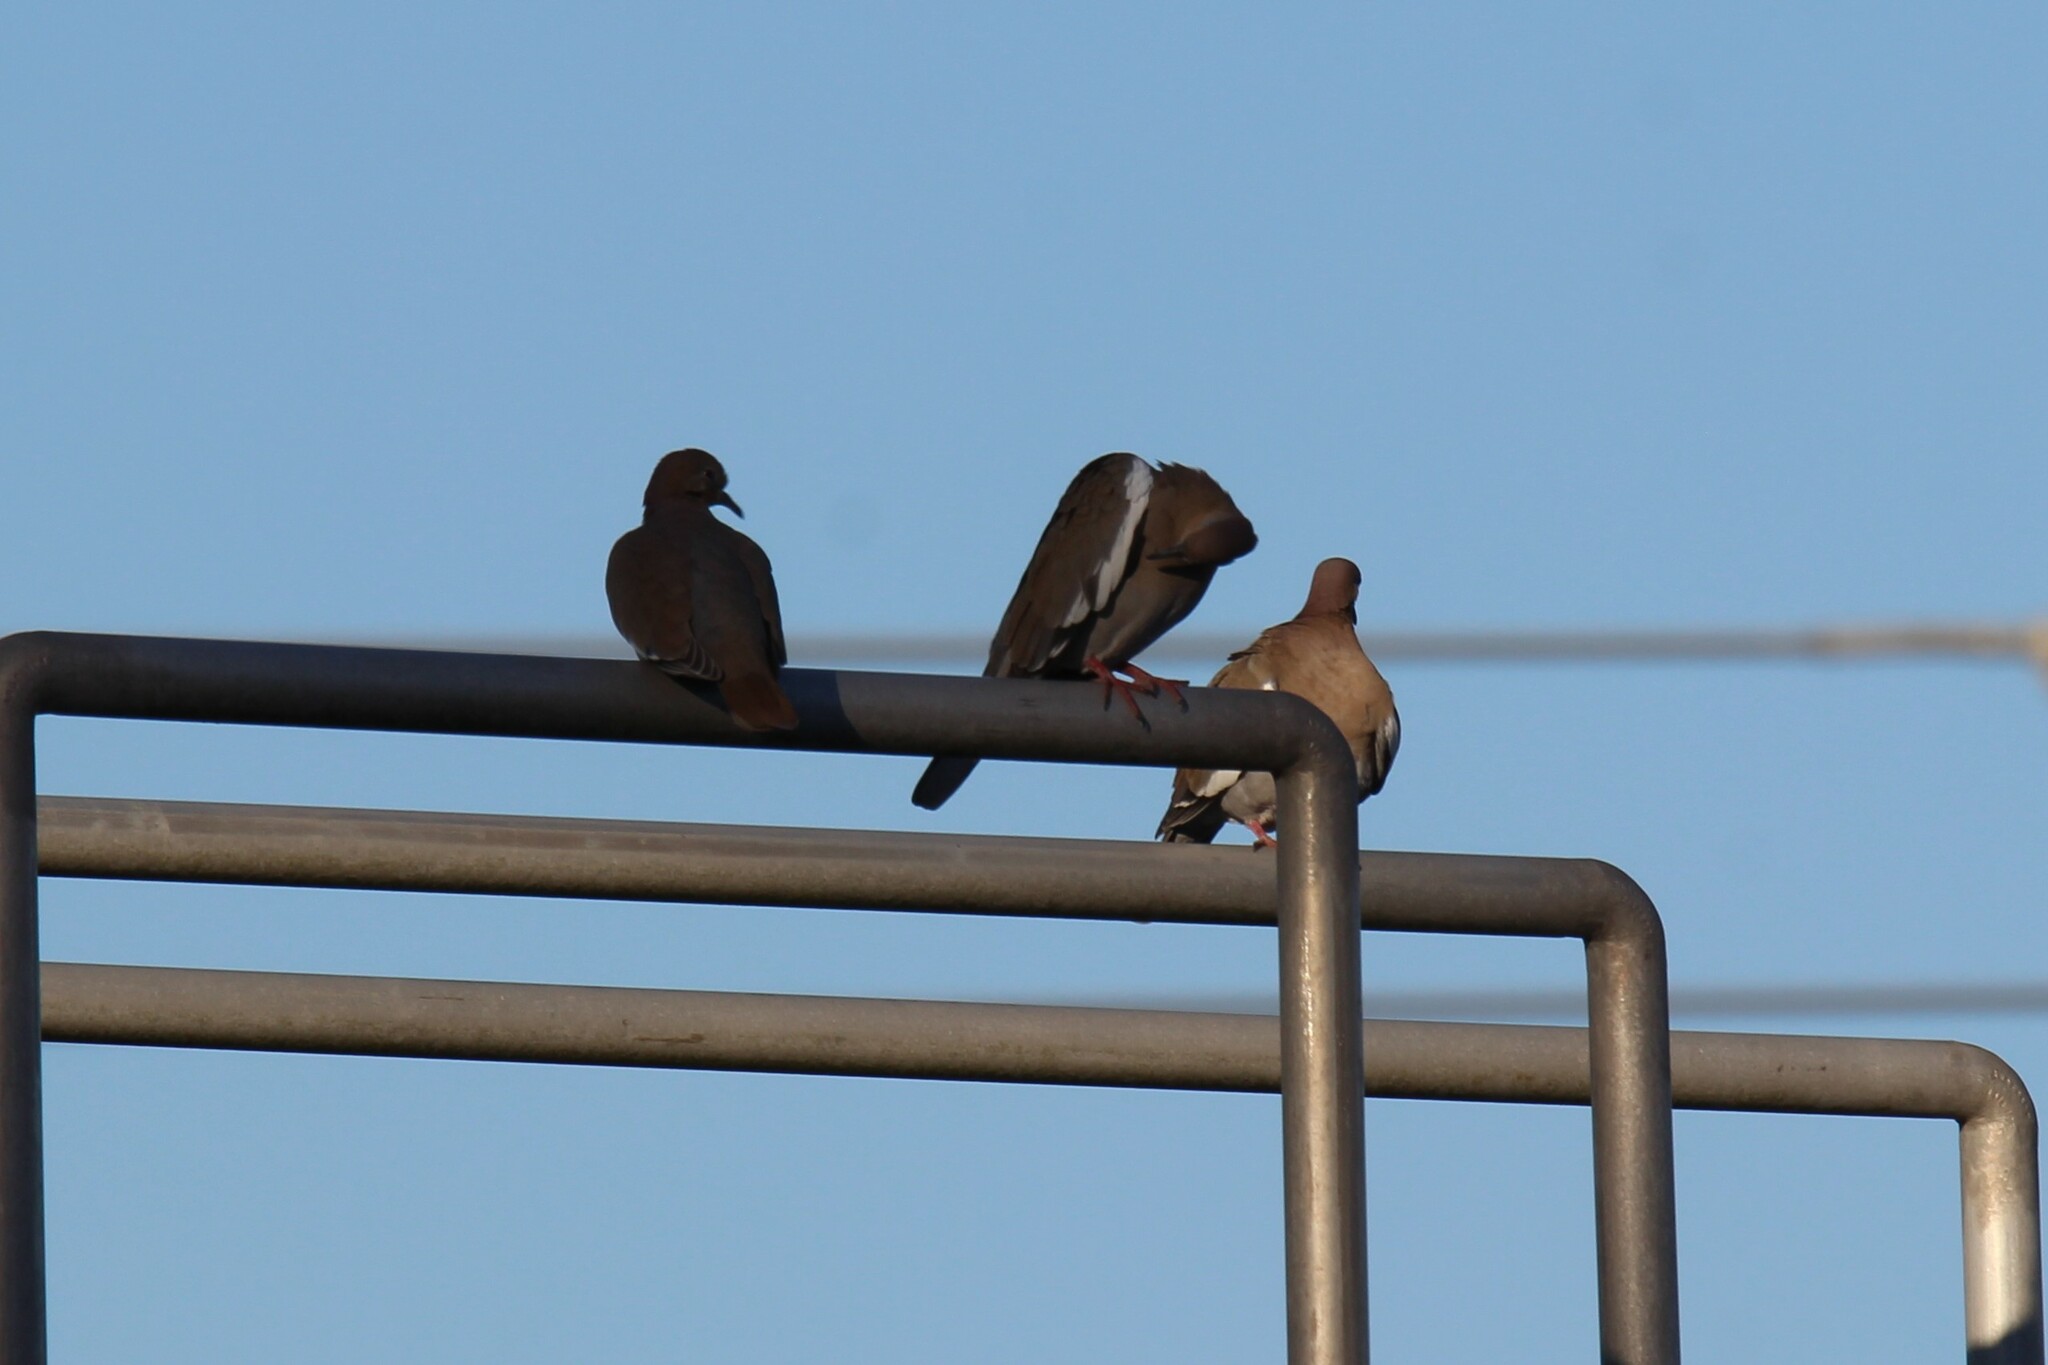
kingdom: Animalia
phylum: Chordata
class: Aves
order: Columbiformes
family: Columbidae
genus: Zenaida
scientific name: Zenaida asiatica
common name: White-winged dove
